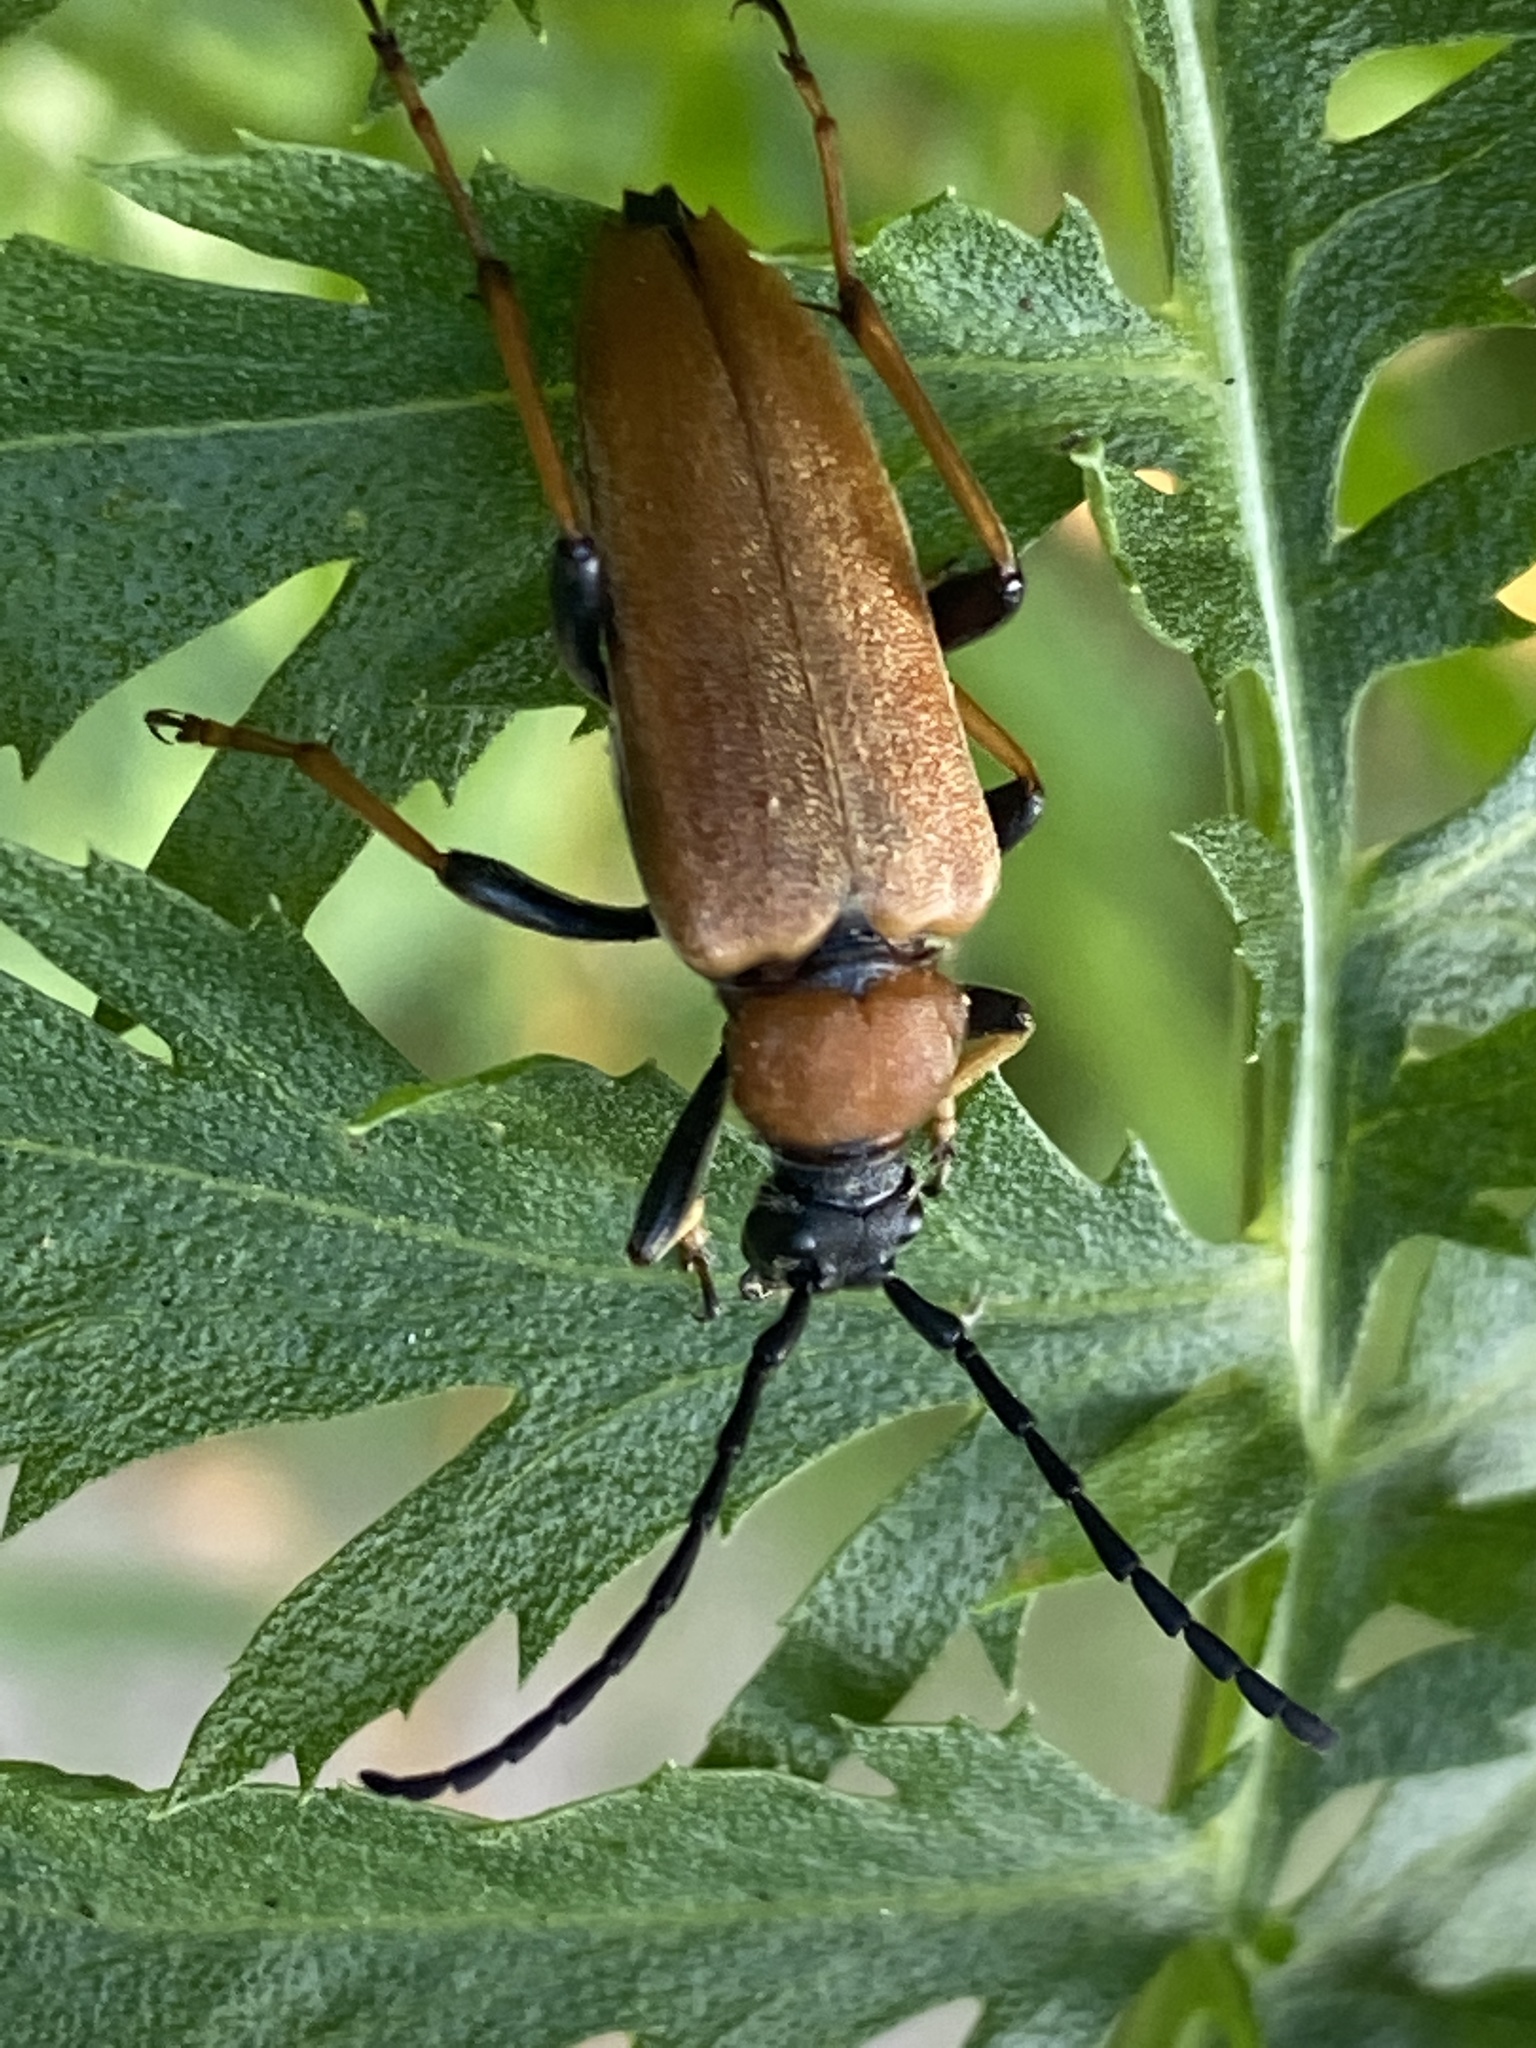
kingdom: Animalia
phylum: Arthropoda
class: Insecta
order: Coleoptera
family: Cerambycidae
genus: Stictoleptura
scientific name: Stictoleptura rubra
